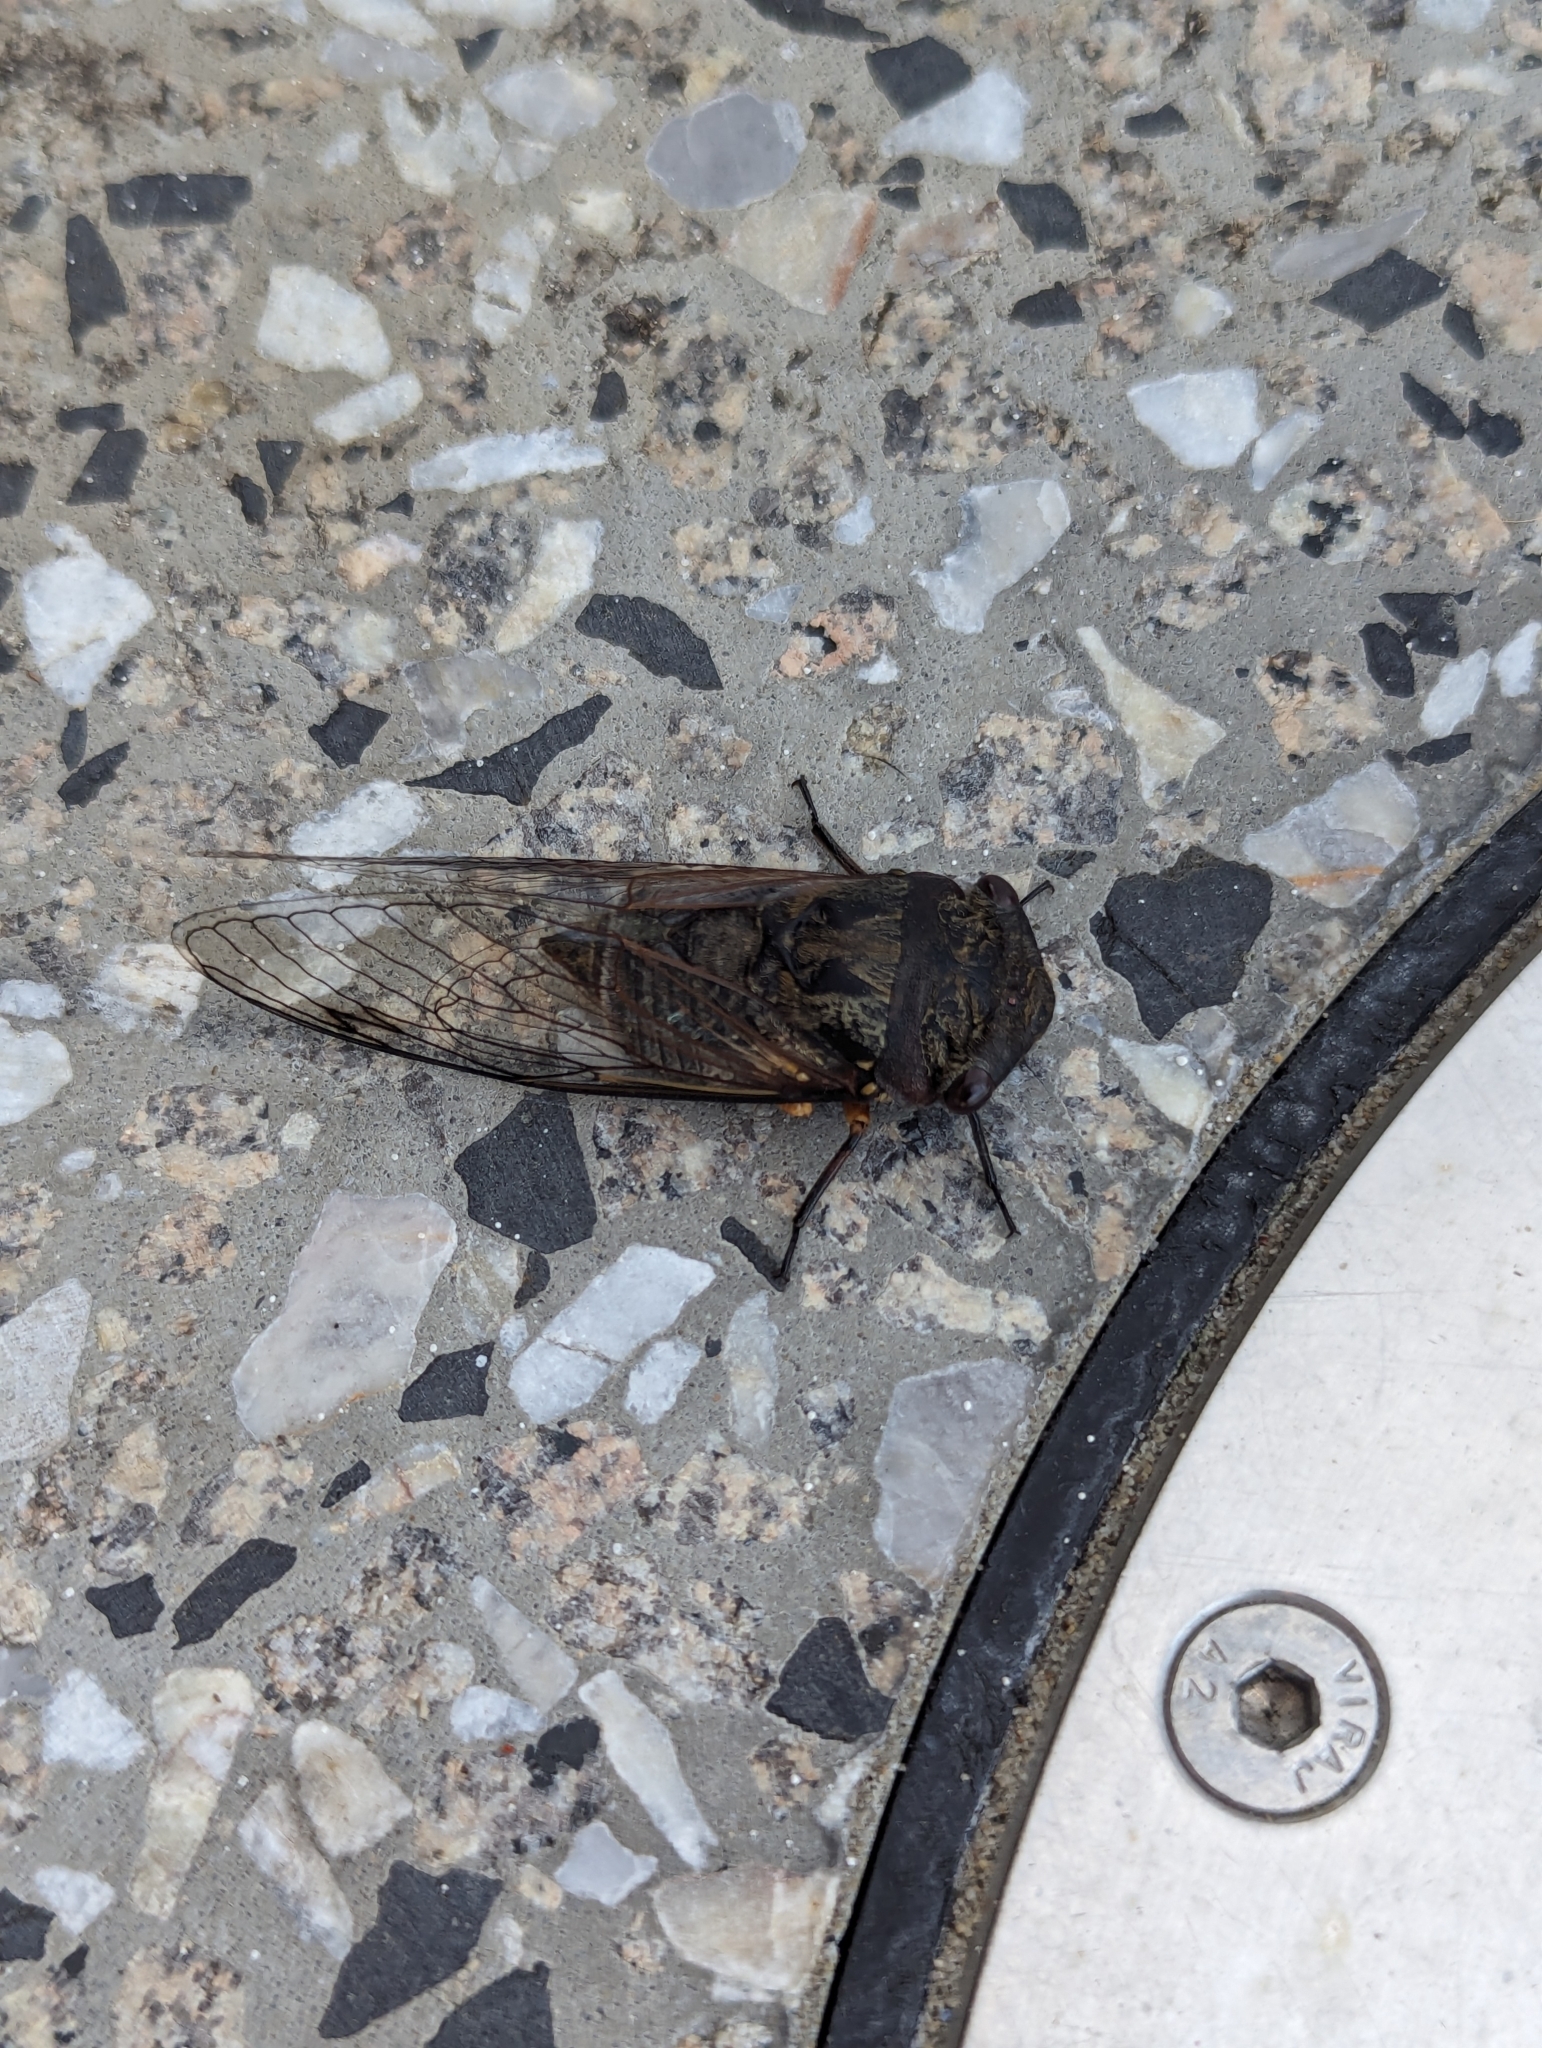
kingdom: Animalia
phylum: Arthropoda
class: Insecta
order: Hemiptera
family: Cicadidae
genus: Psaltoda
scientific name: Psaltoda plaga
